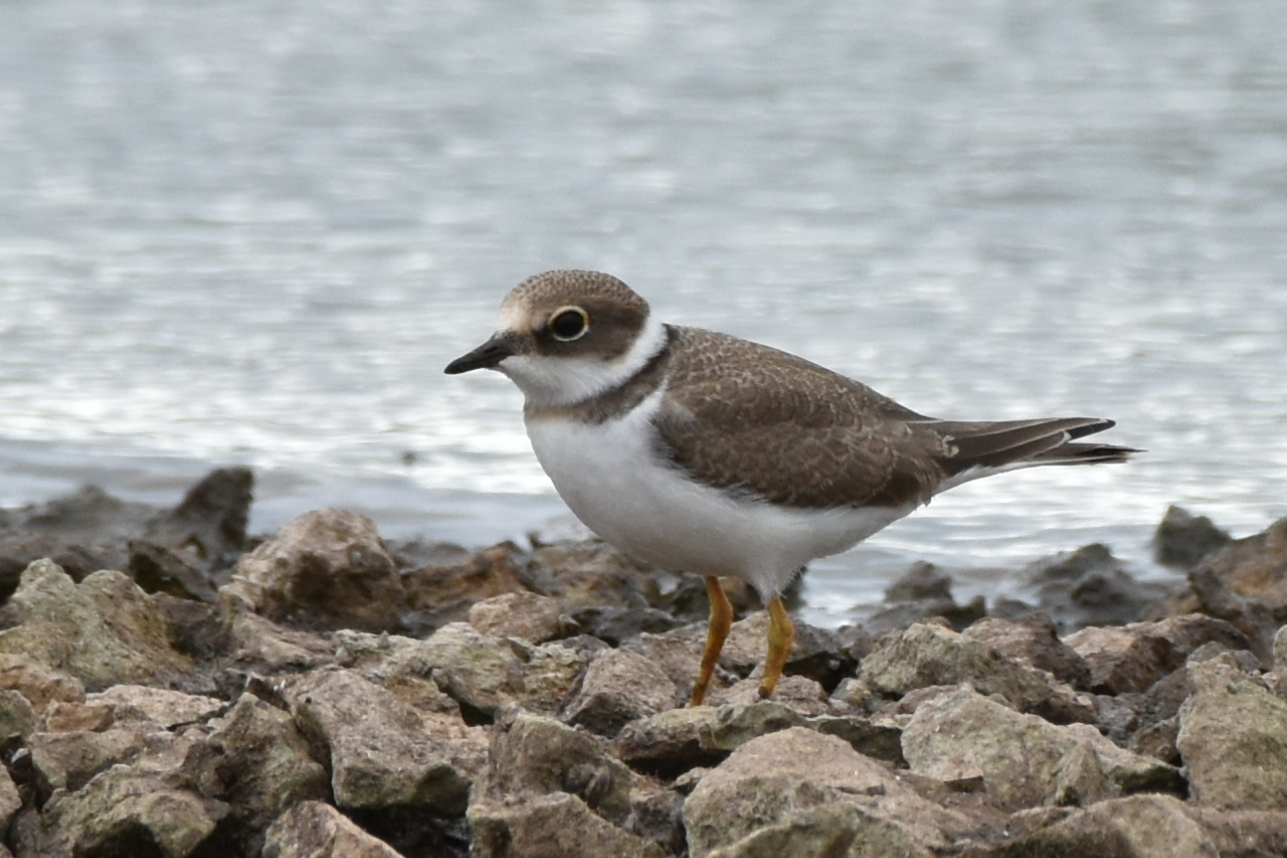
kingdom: Animalia
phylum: Chordata
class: Aves
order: Charadriiformes
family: Charadriidae
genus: Charadrius
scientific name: Charadrius dubius
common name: Little ringed plover
